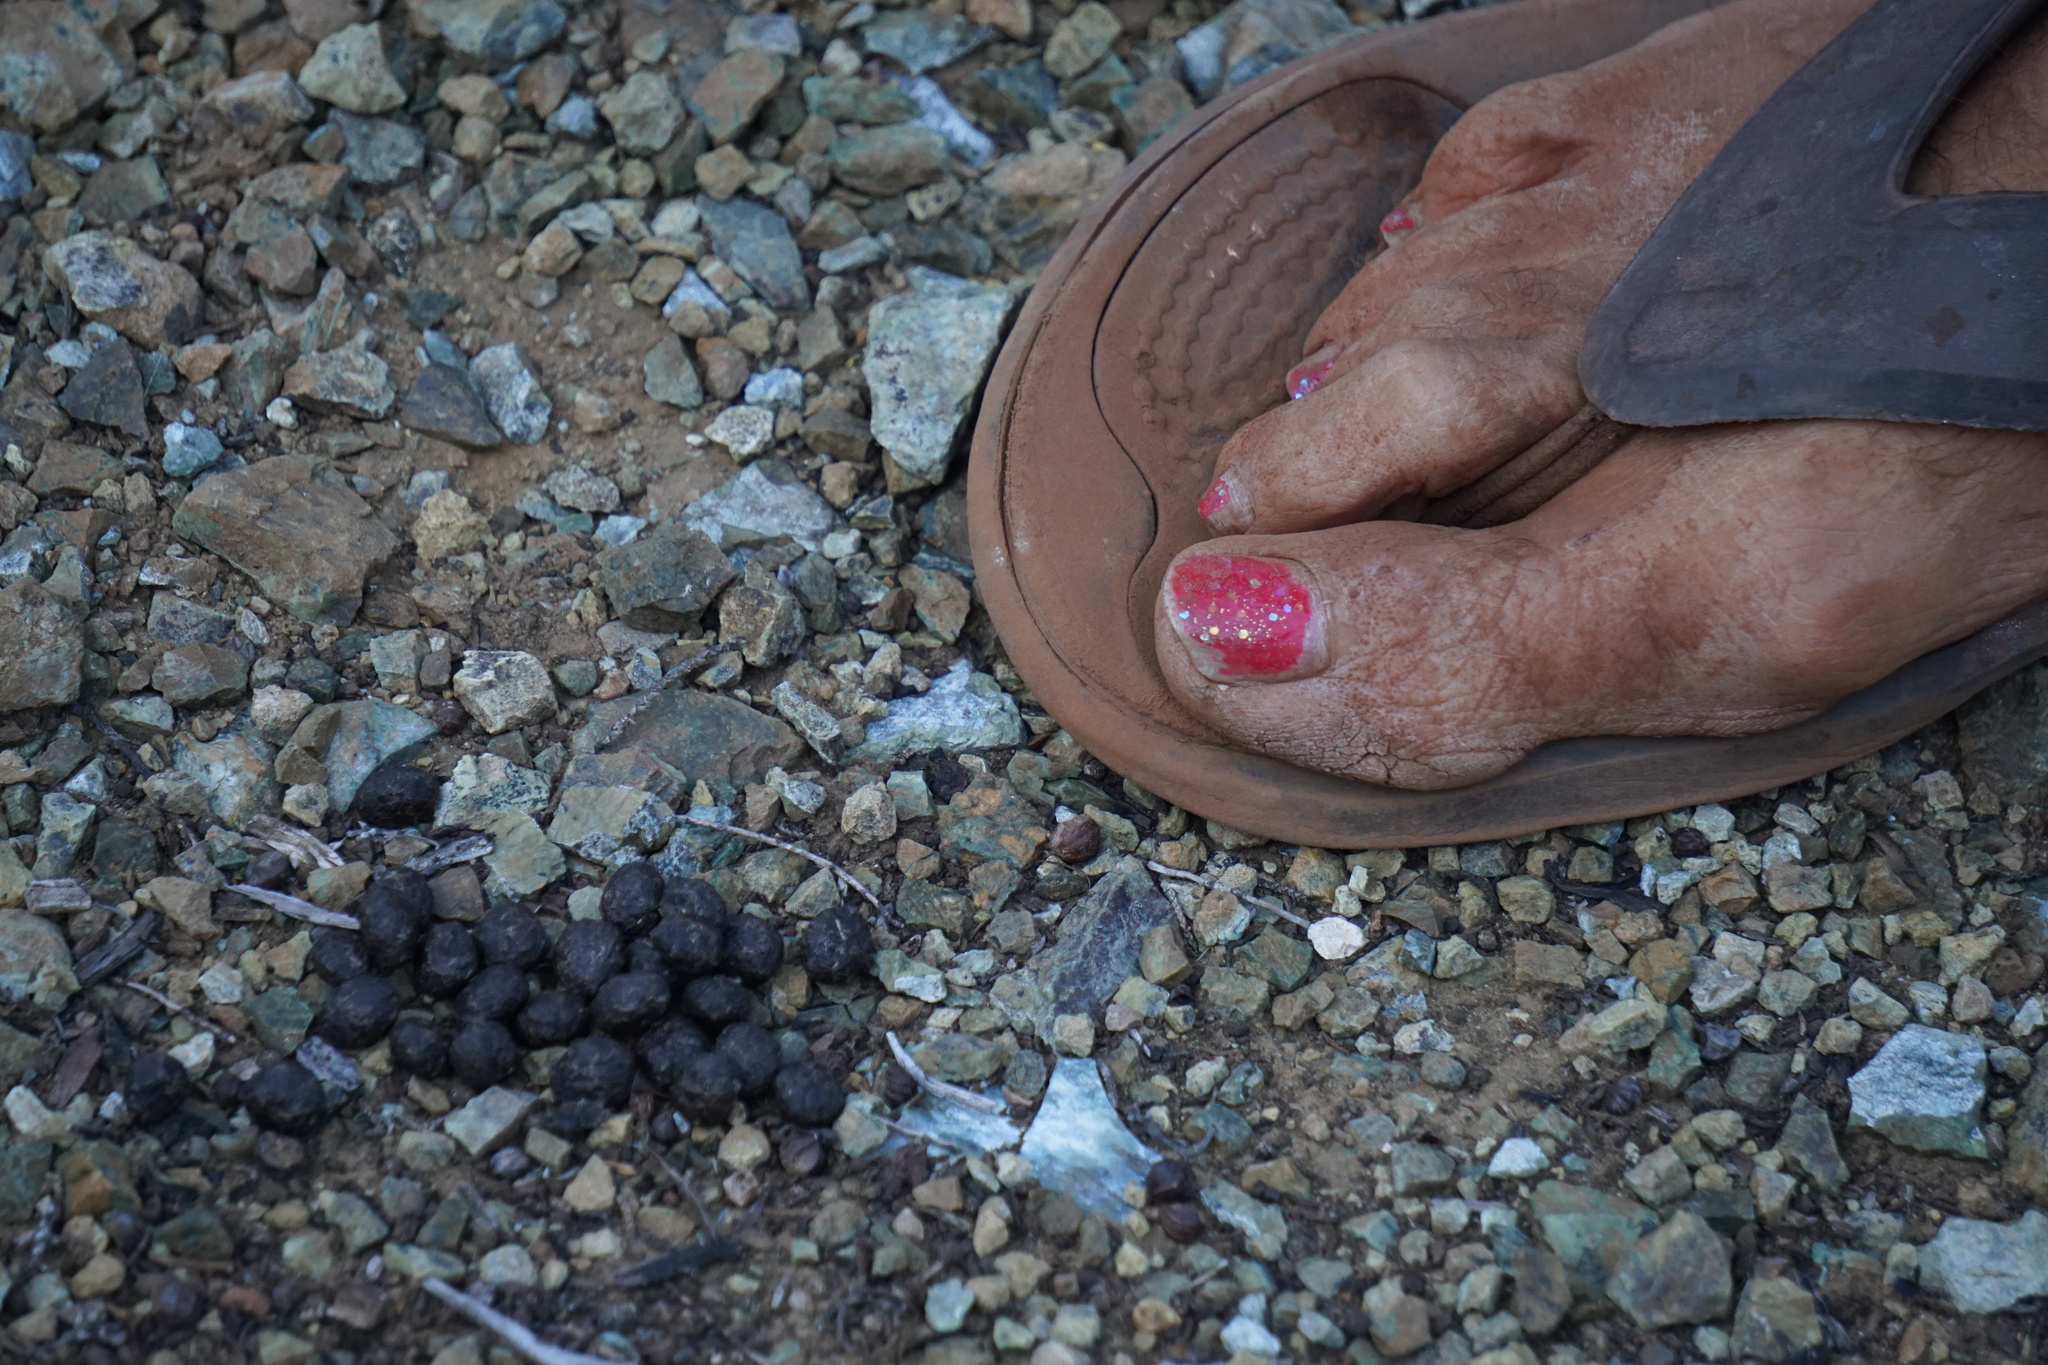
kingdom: Animalia
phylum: Chordata
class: Mammalia
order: Lagomorpha
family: Leporidae
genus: Sylvilagus
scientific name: Sylvilagus bachmani
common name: Brush rabbit
